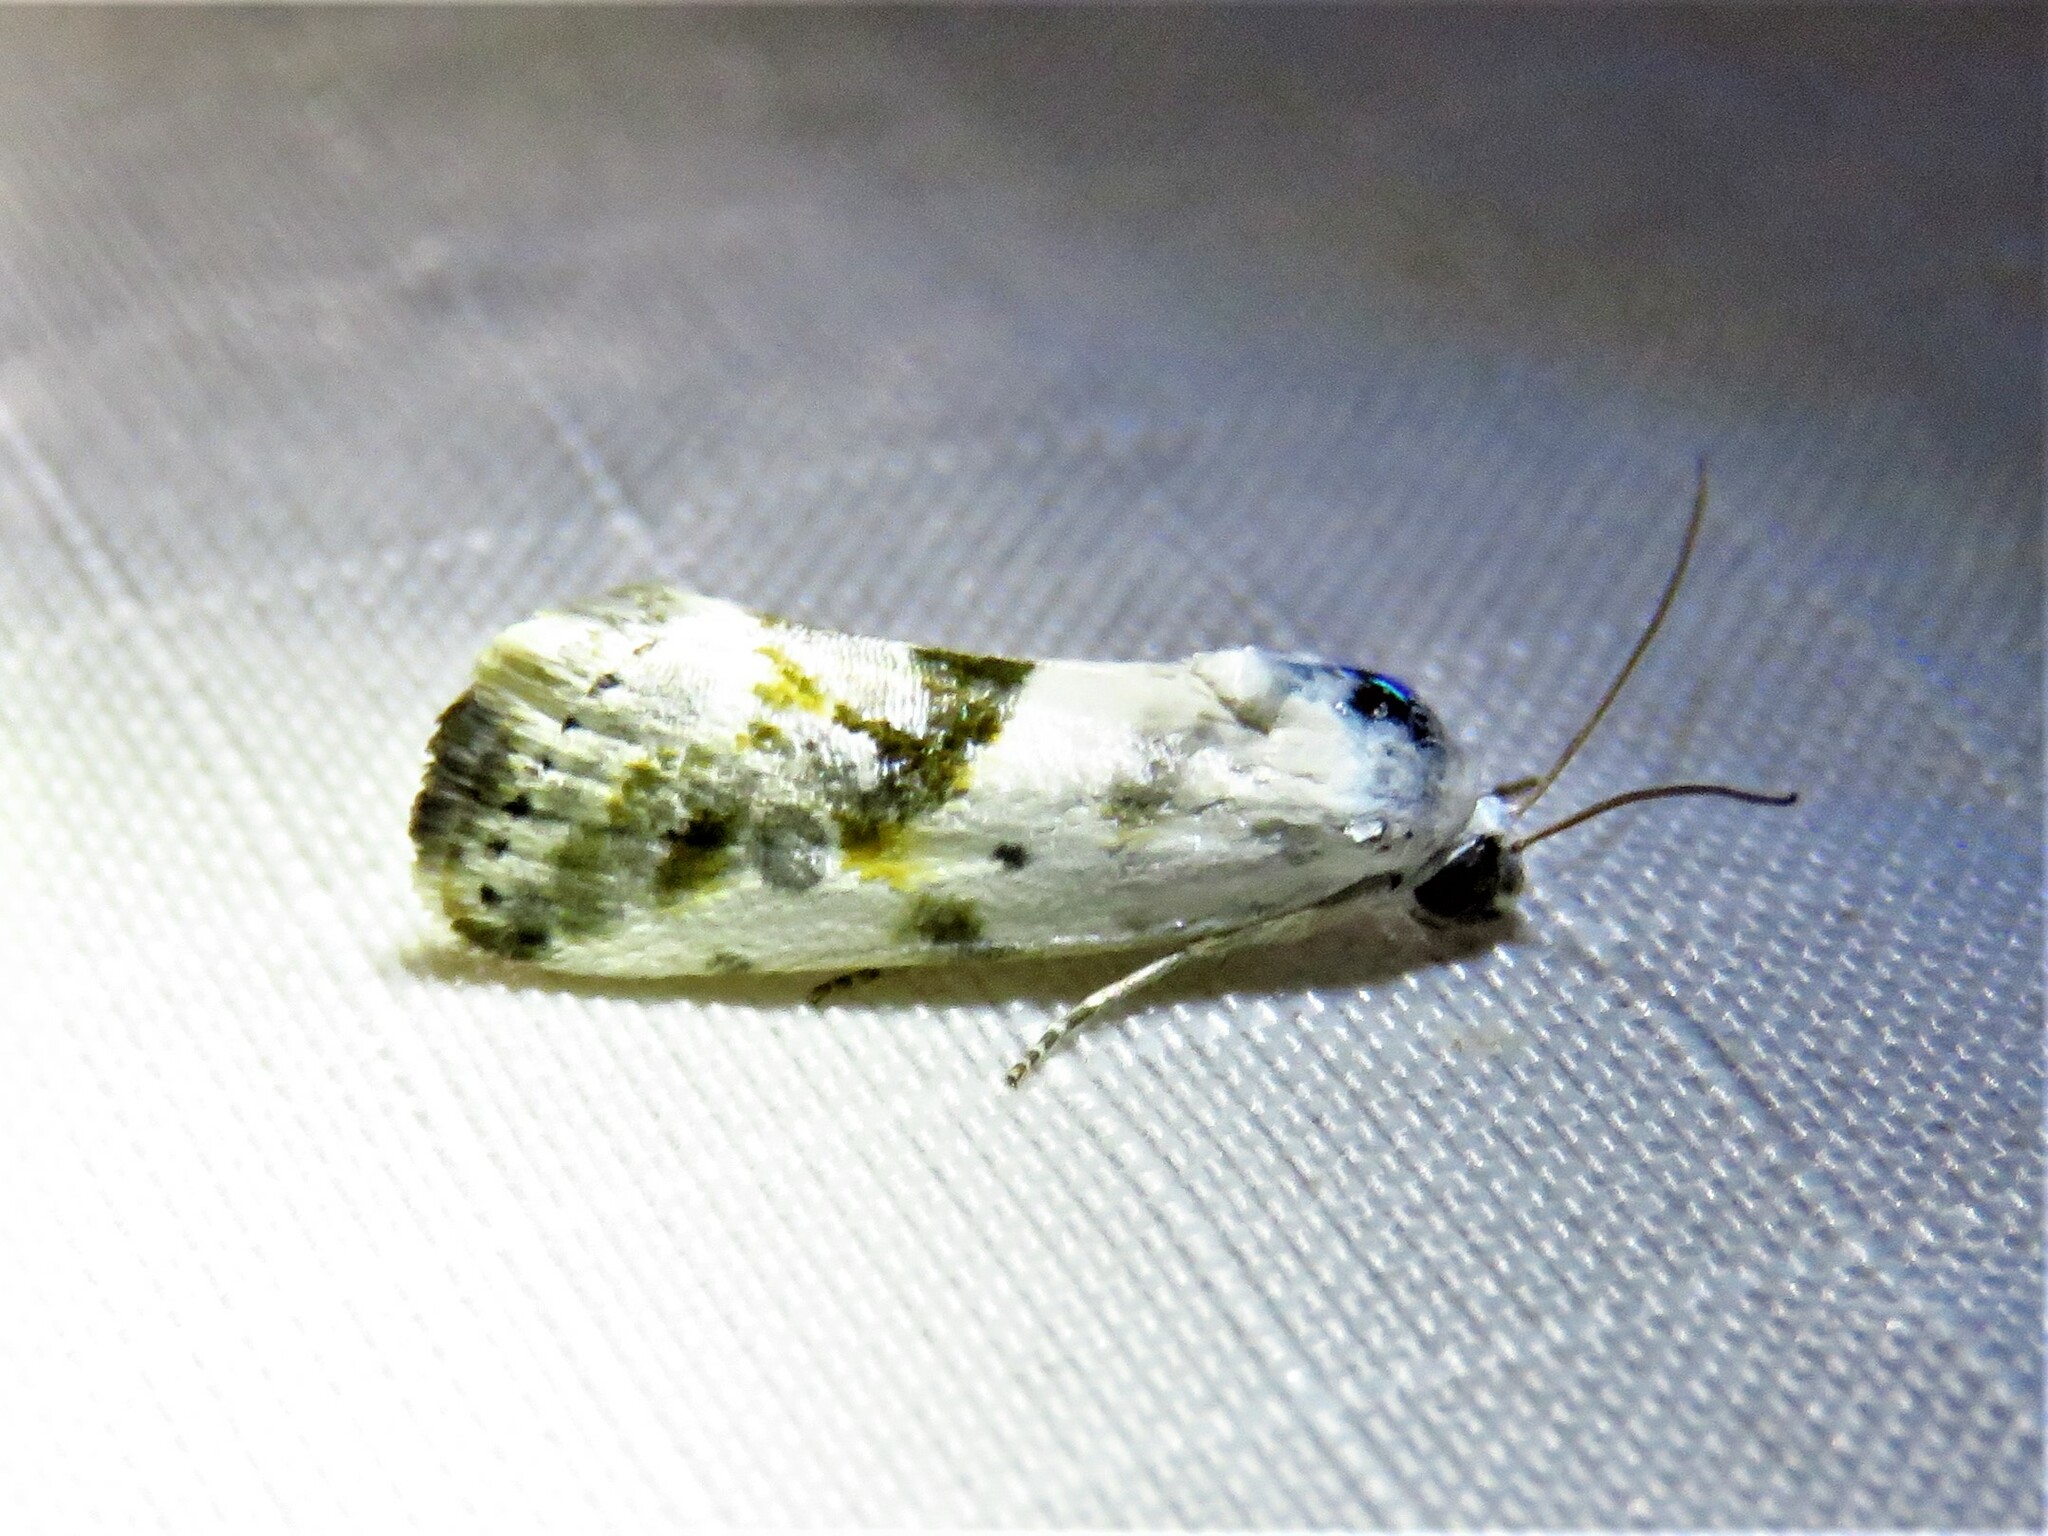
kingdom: Animalia
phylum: Arthropoda
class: Insecta
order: Lepidoptera
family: Noctuidae
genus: Acontia
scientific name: Acontia candefacta
